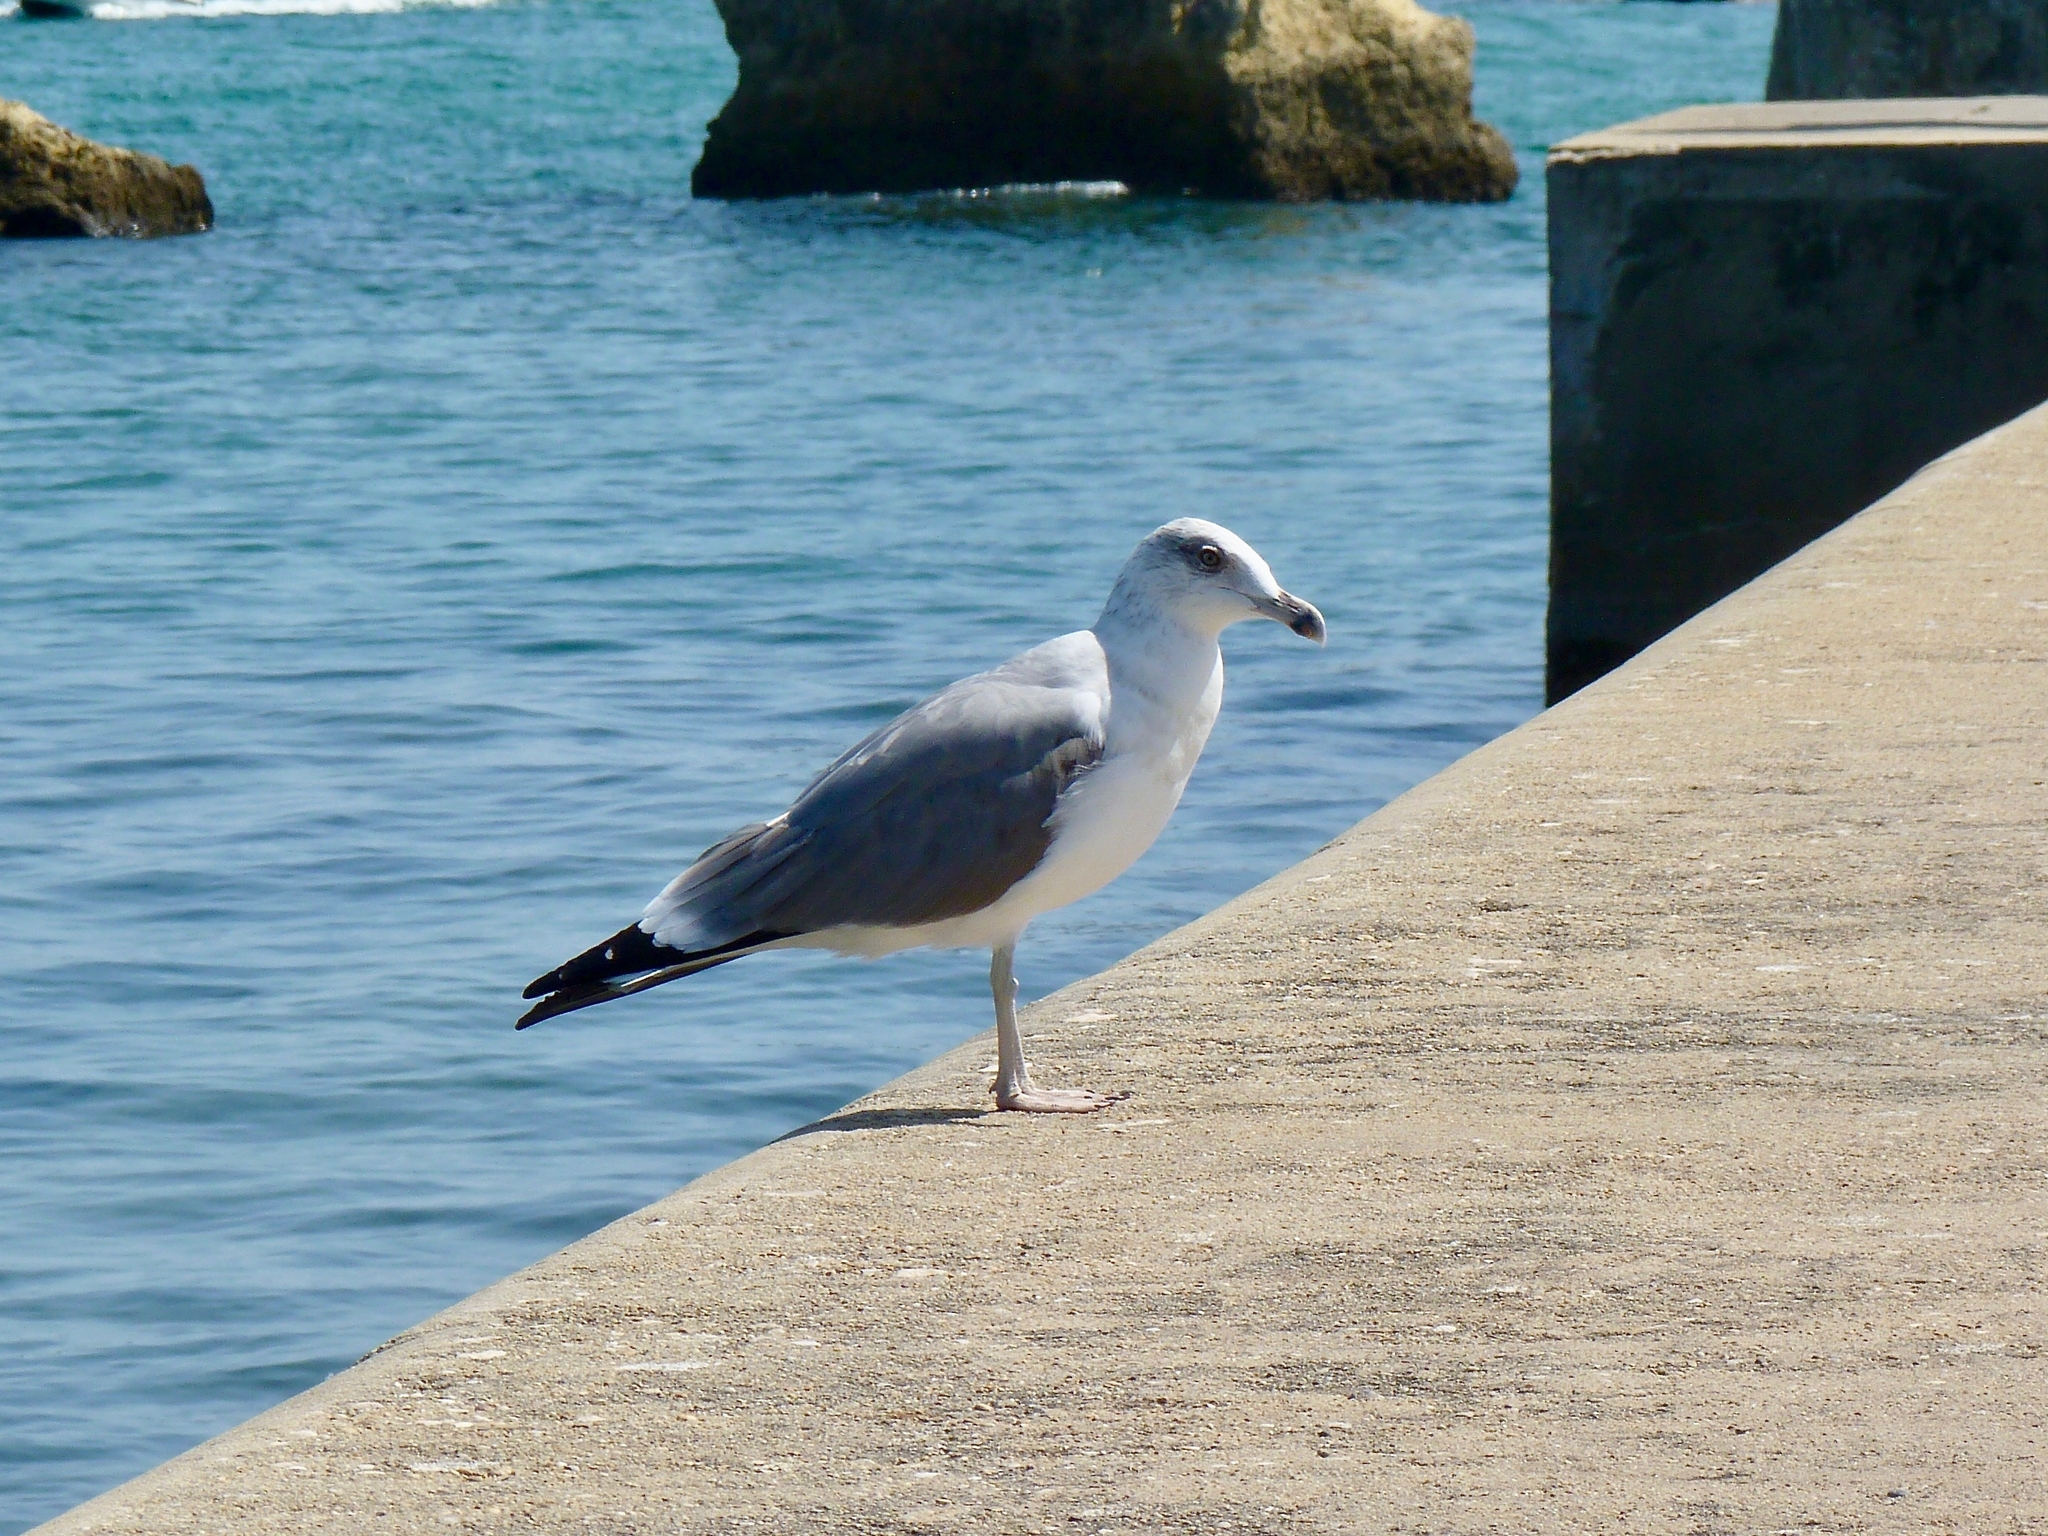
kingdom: Animalia
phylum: Chordata
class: Aves
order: Charadriiformes
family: Laridae
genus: Larus
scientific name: Larus michahellis
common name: Yellow-legged gull
